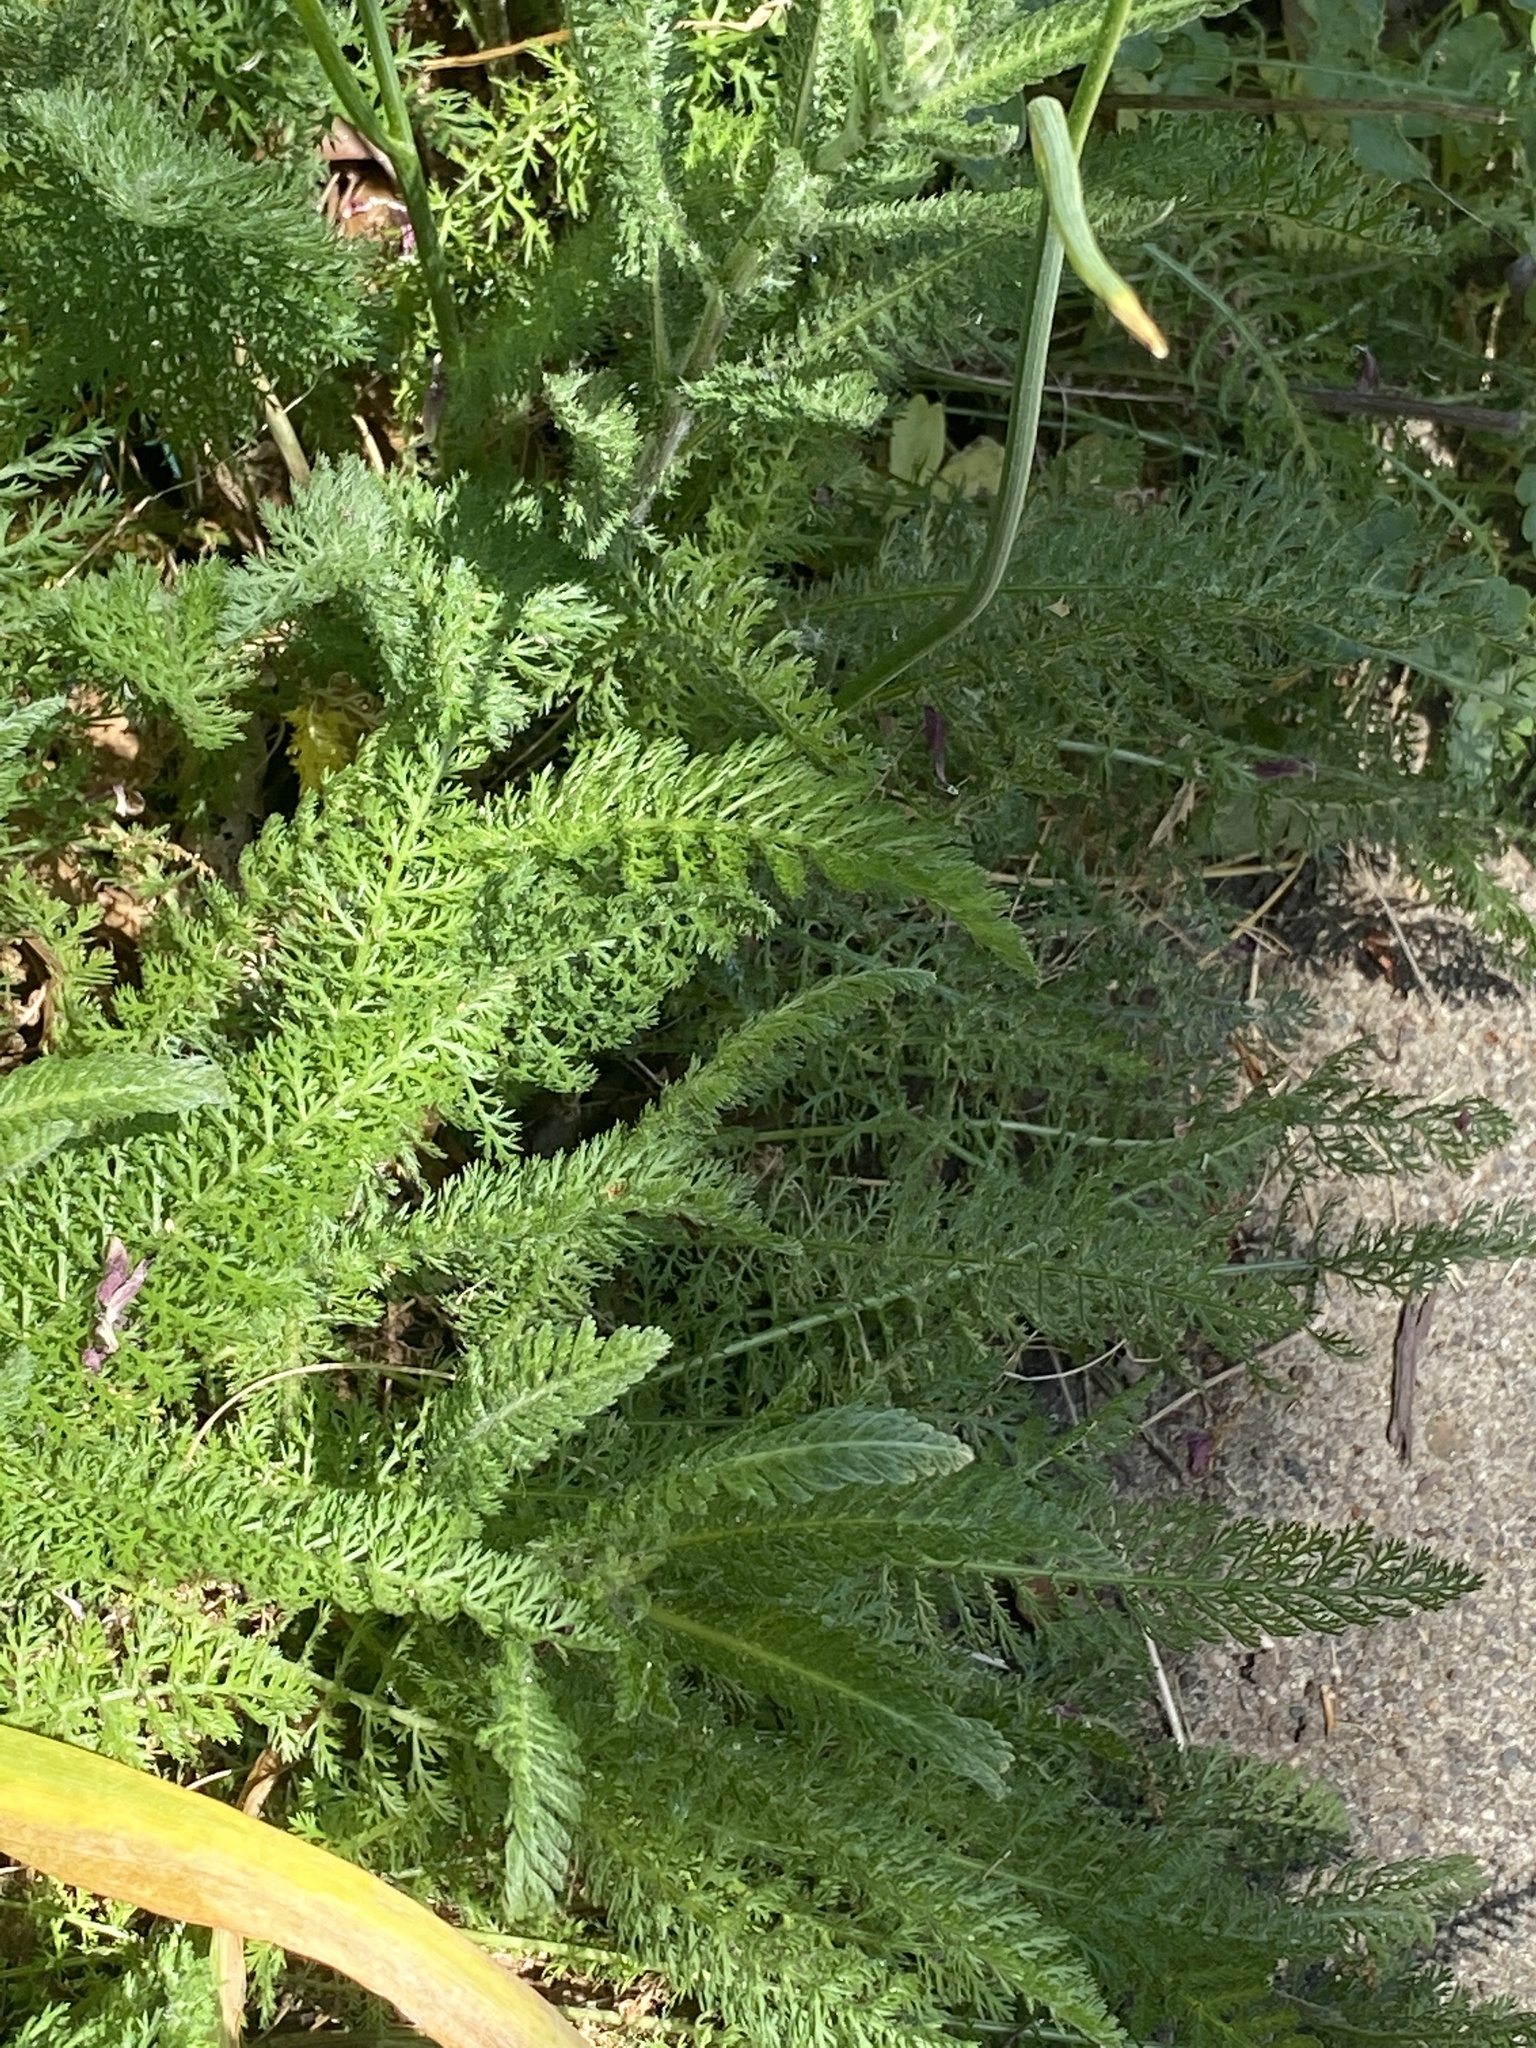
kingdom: Plantae
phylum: Tracheophyta
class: Magnoliopsida
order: Asterales
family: Asteraceae
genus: Achillea
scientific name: Achillea millefolium
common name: Yarrow
